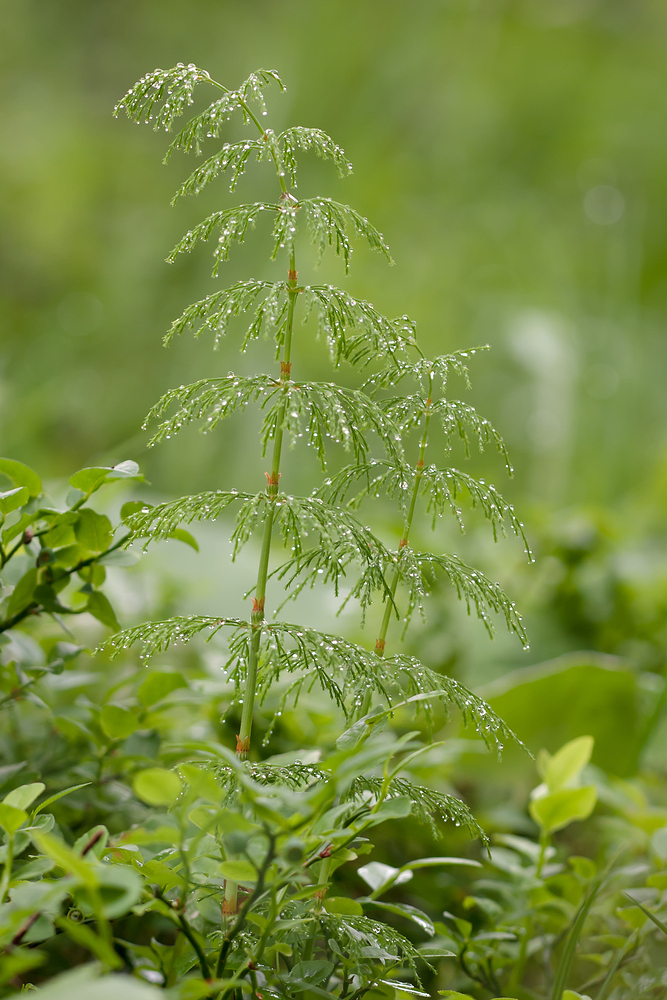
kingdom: Plantae
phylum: Tracheophyta
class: Polypodiopsida
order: Equisetales
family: Equisetaceae
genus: Equisetum
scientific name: Equisetum sylvaticum
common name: Wood horsetail
